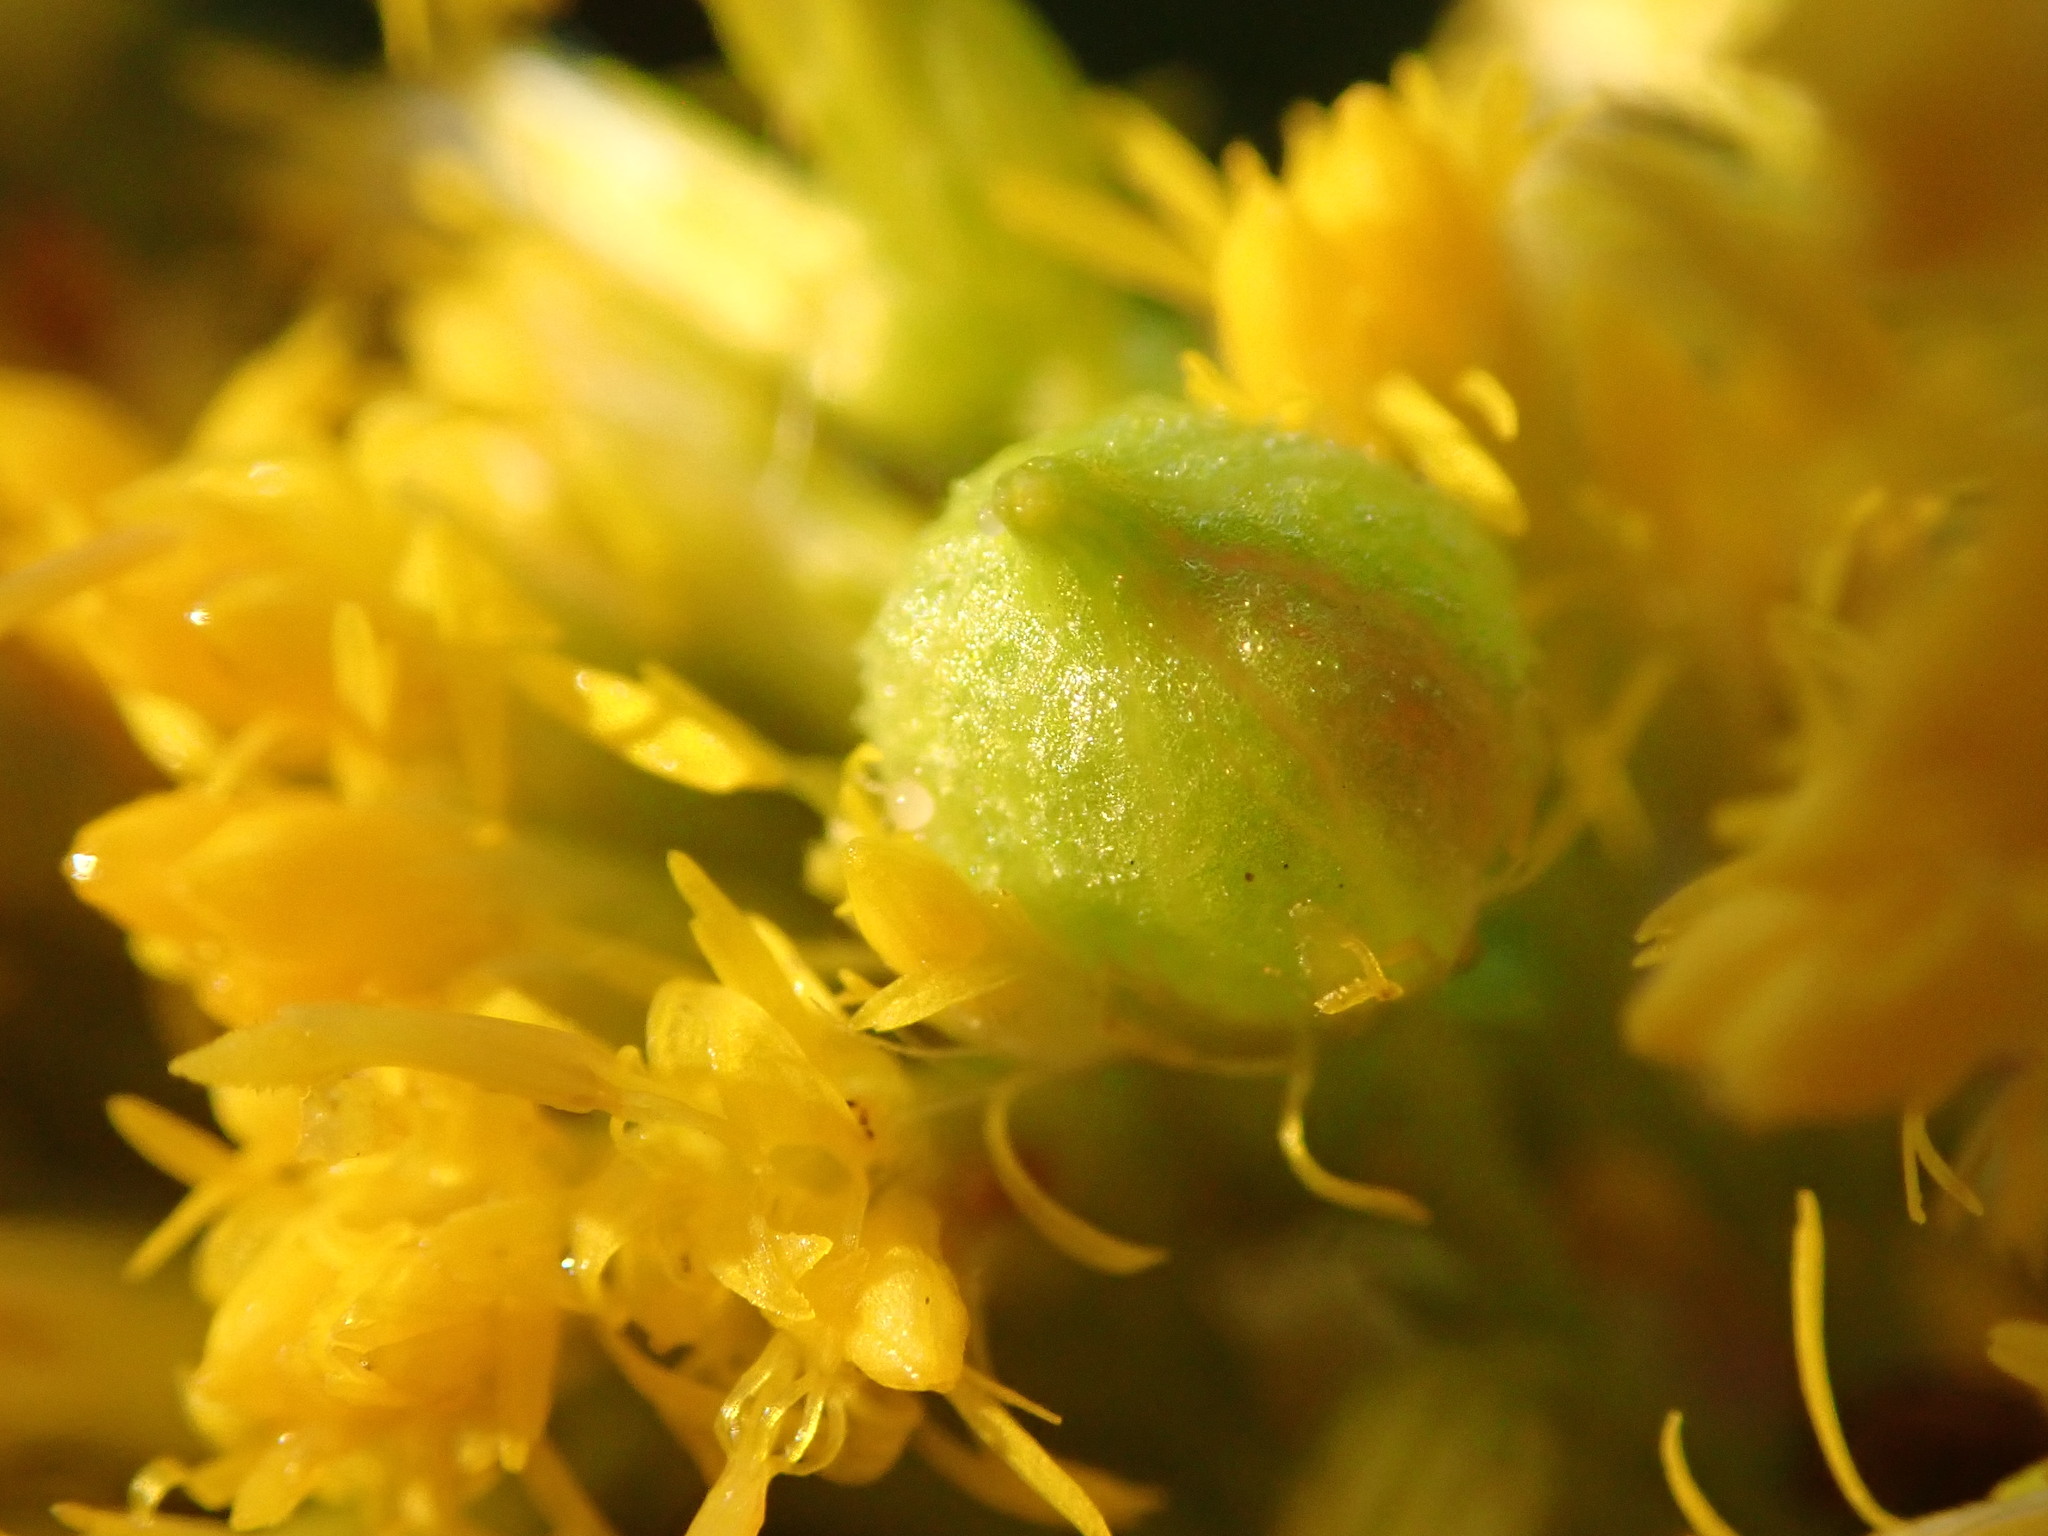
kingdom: Animalia
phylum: Arthropoda
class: Insecta
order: Diptera
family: Cecidomyiidae
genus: Schizomyia
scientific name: Schizomyia racemicola
